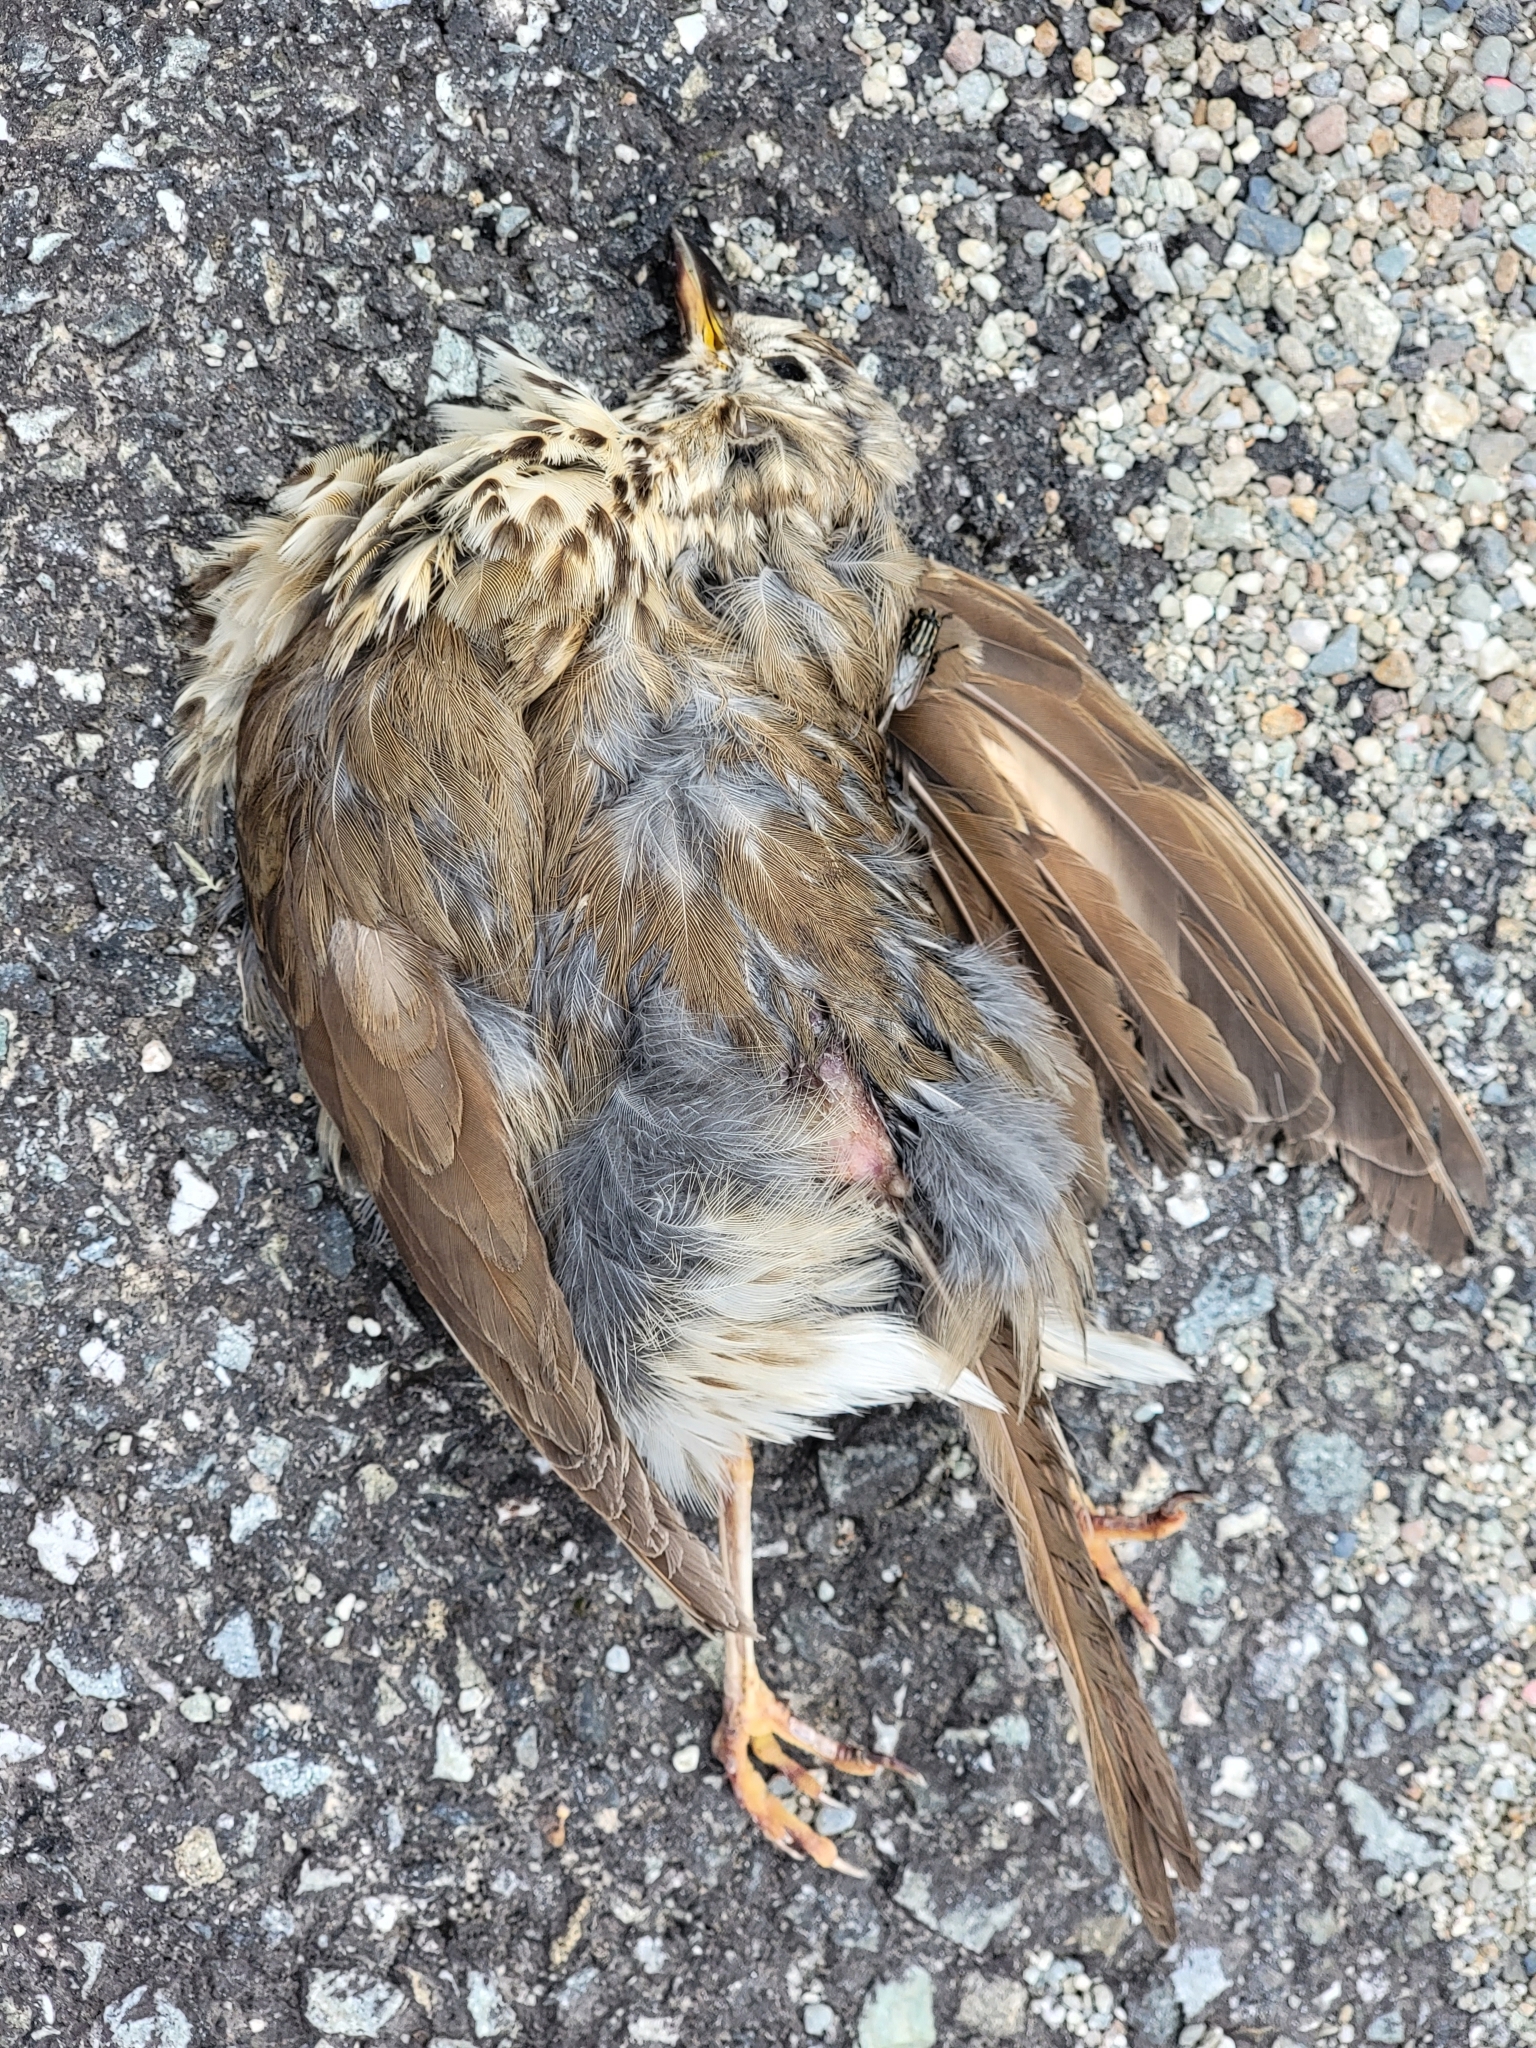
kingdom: Animalia
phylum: Chordata
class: Aves
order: Passeriformes
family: Turdidae
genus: Turdus
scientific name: Turdus philomelos
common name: Song thrush
